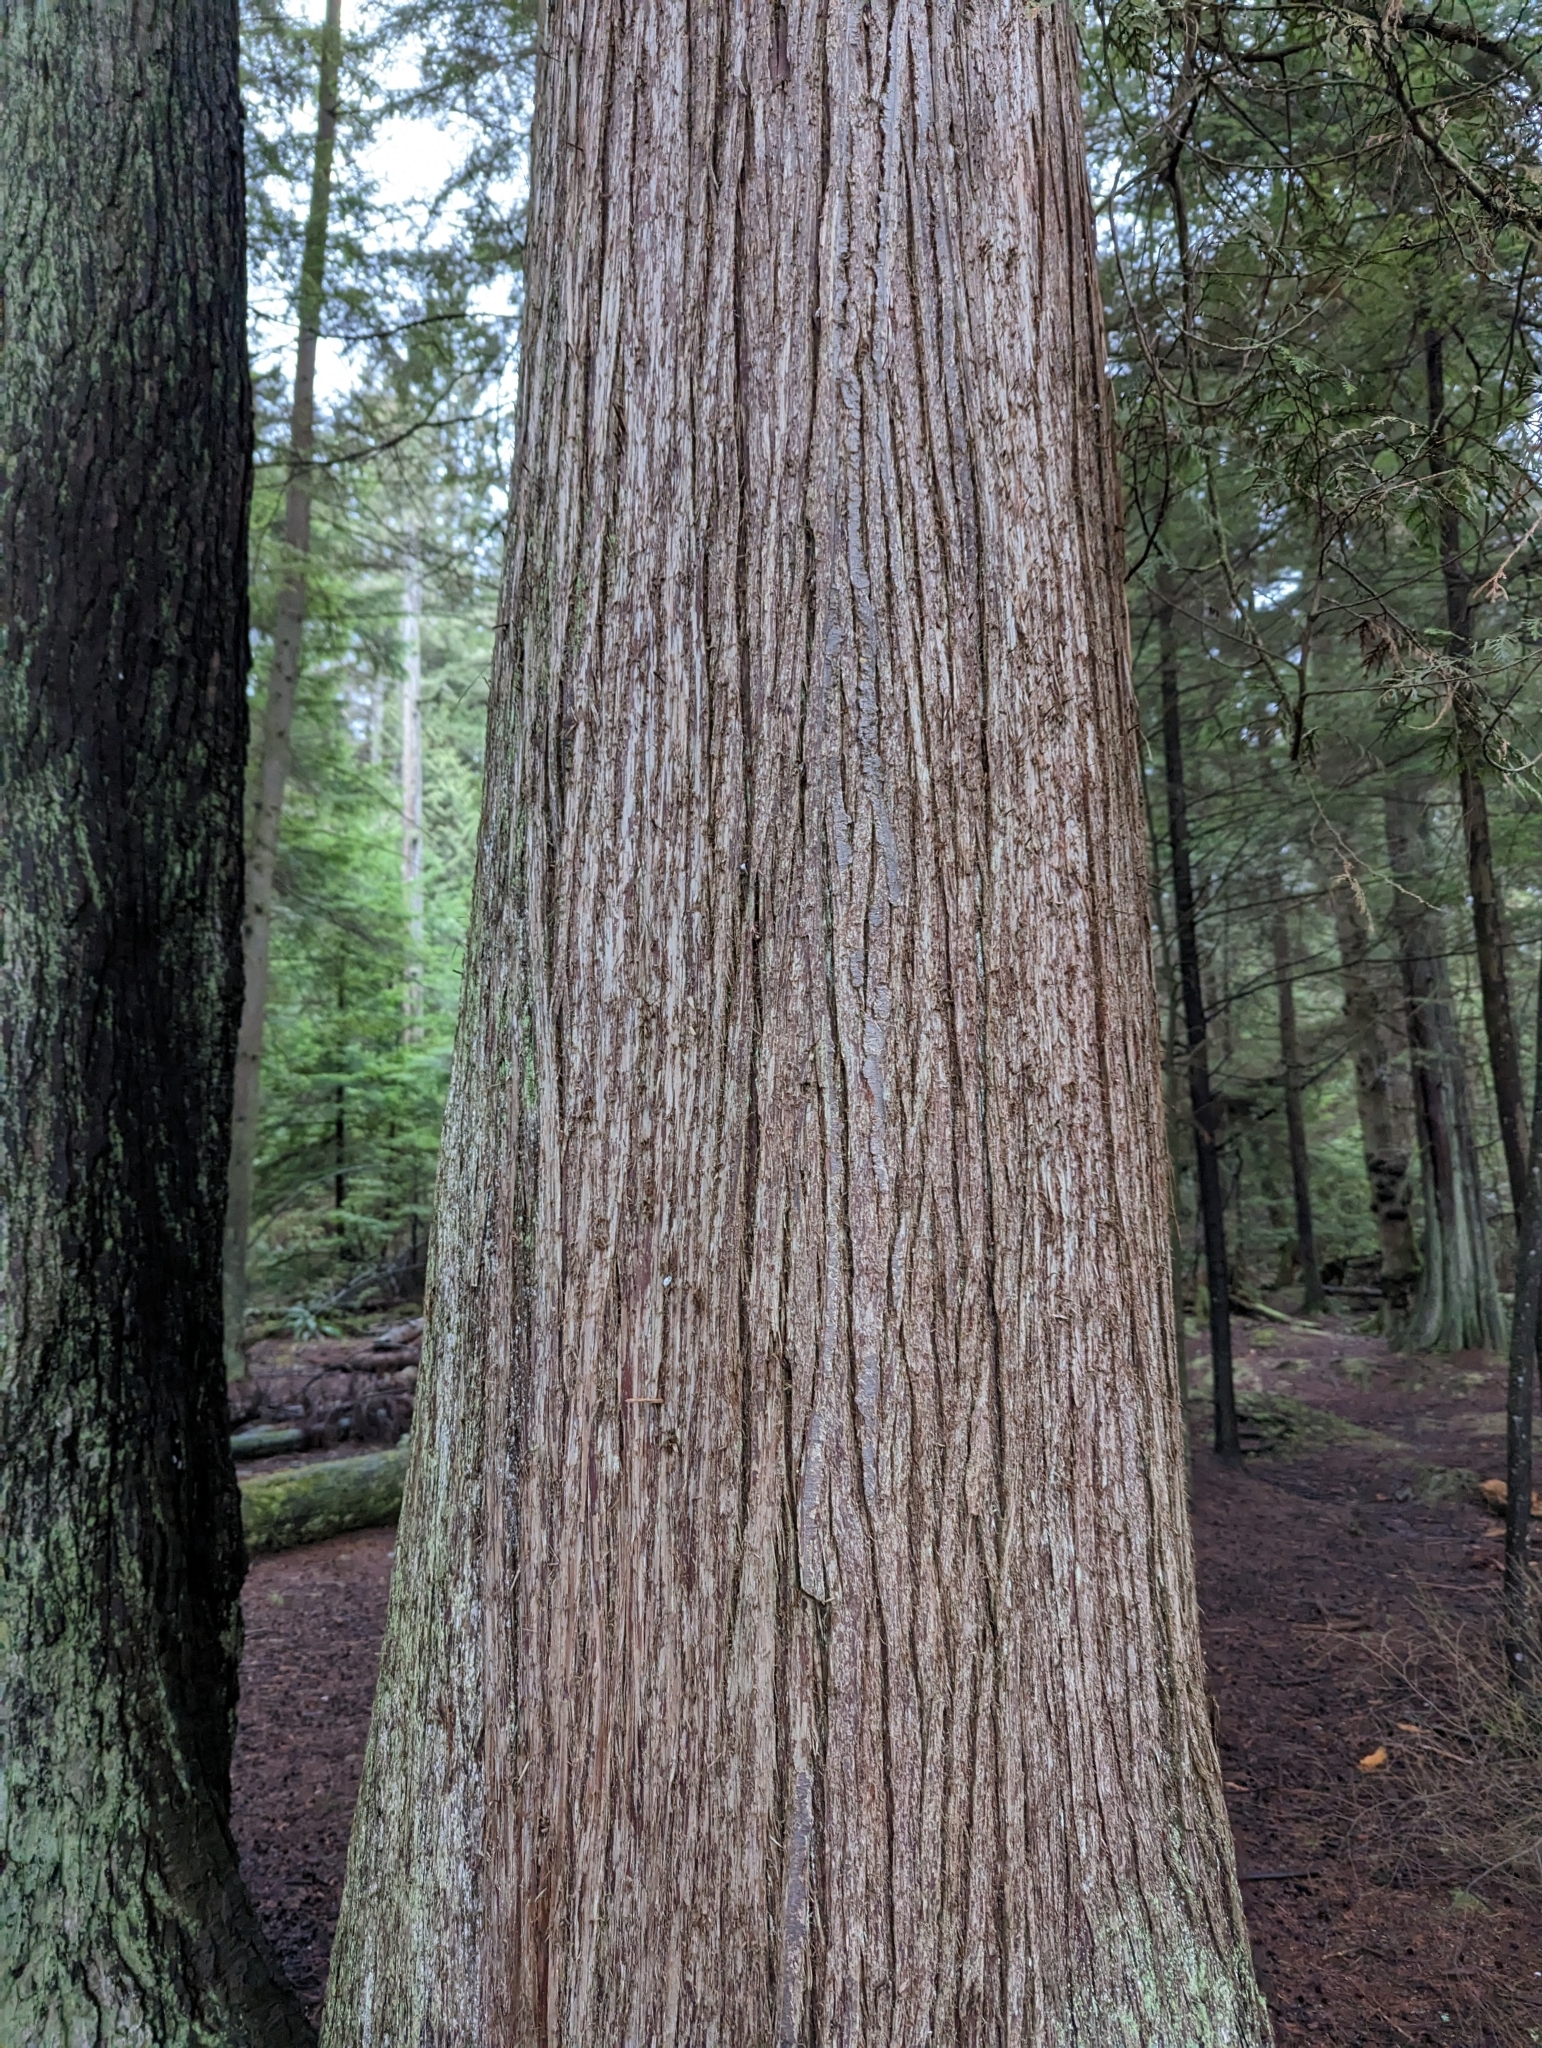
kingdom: Plantae
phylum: Tracheophyta
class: Pinopsida
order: Pinales
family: Cupressaceae
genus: Thuja
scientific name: Thuja plicata
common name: Western red-cedar
